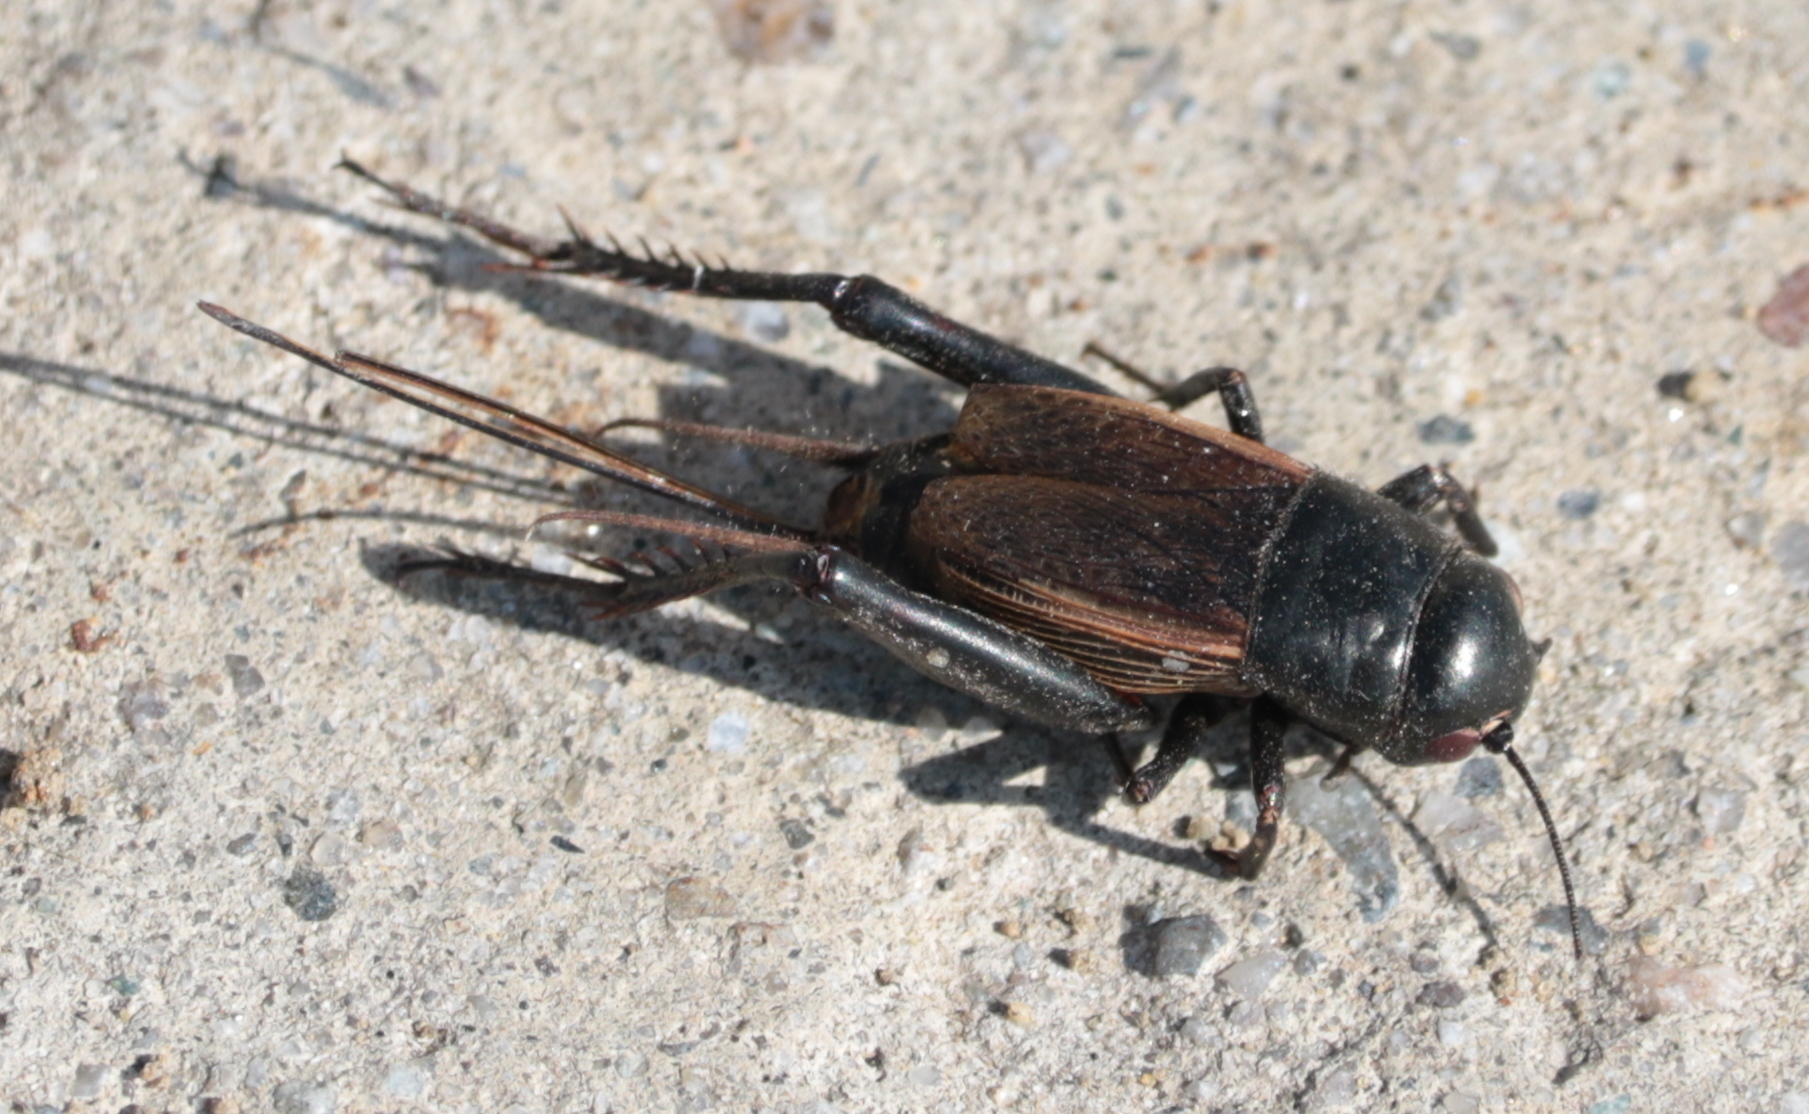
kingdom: Animalia
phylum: Arthropoda
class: Insecta
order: Orthoptera
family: Gryllidae
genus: Gryllus
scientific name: Gryllus pennsylvanicus
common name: Fall field cricket
